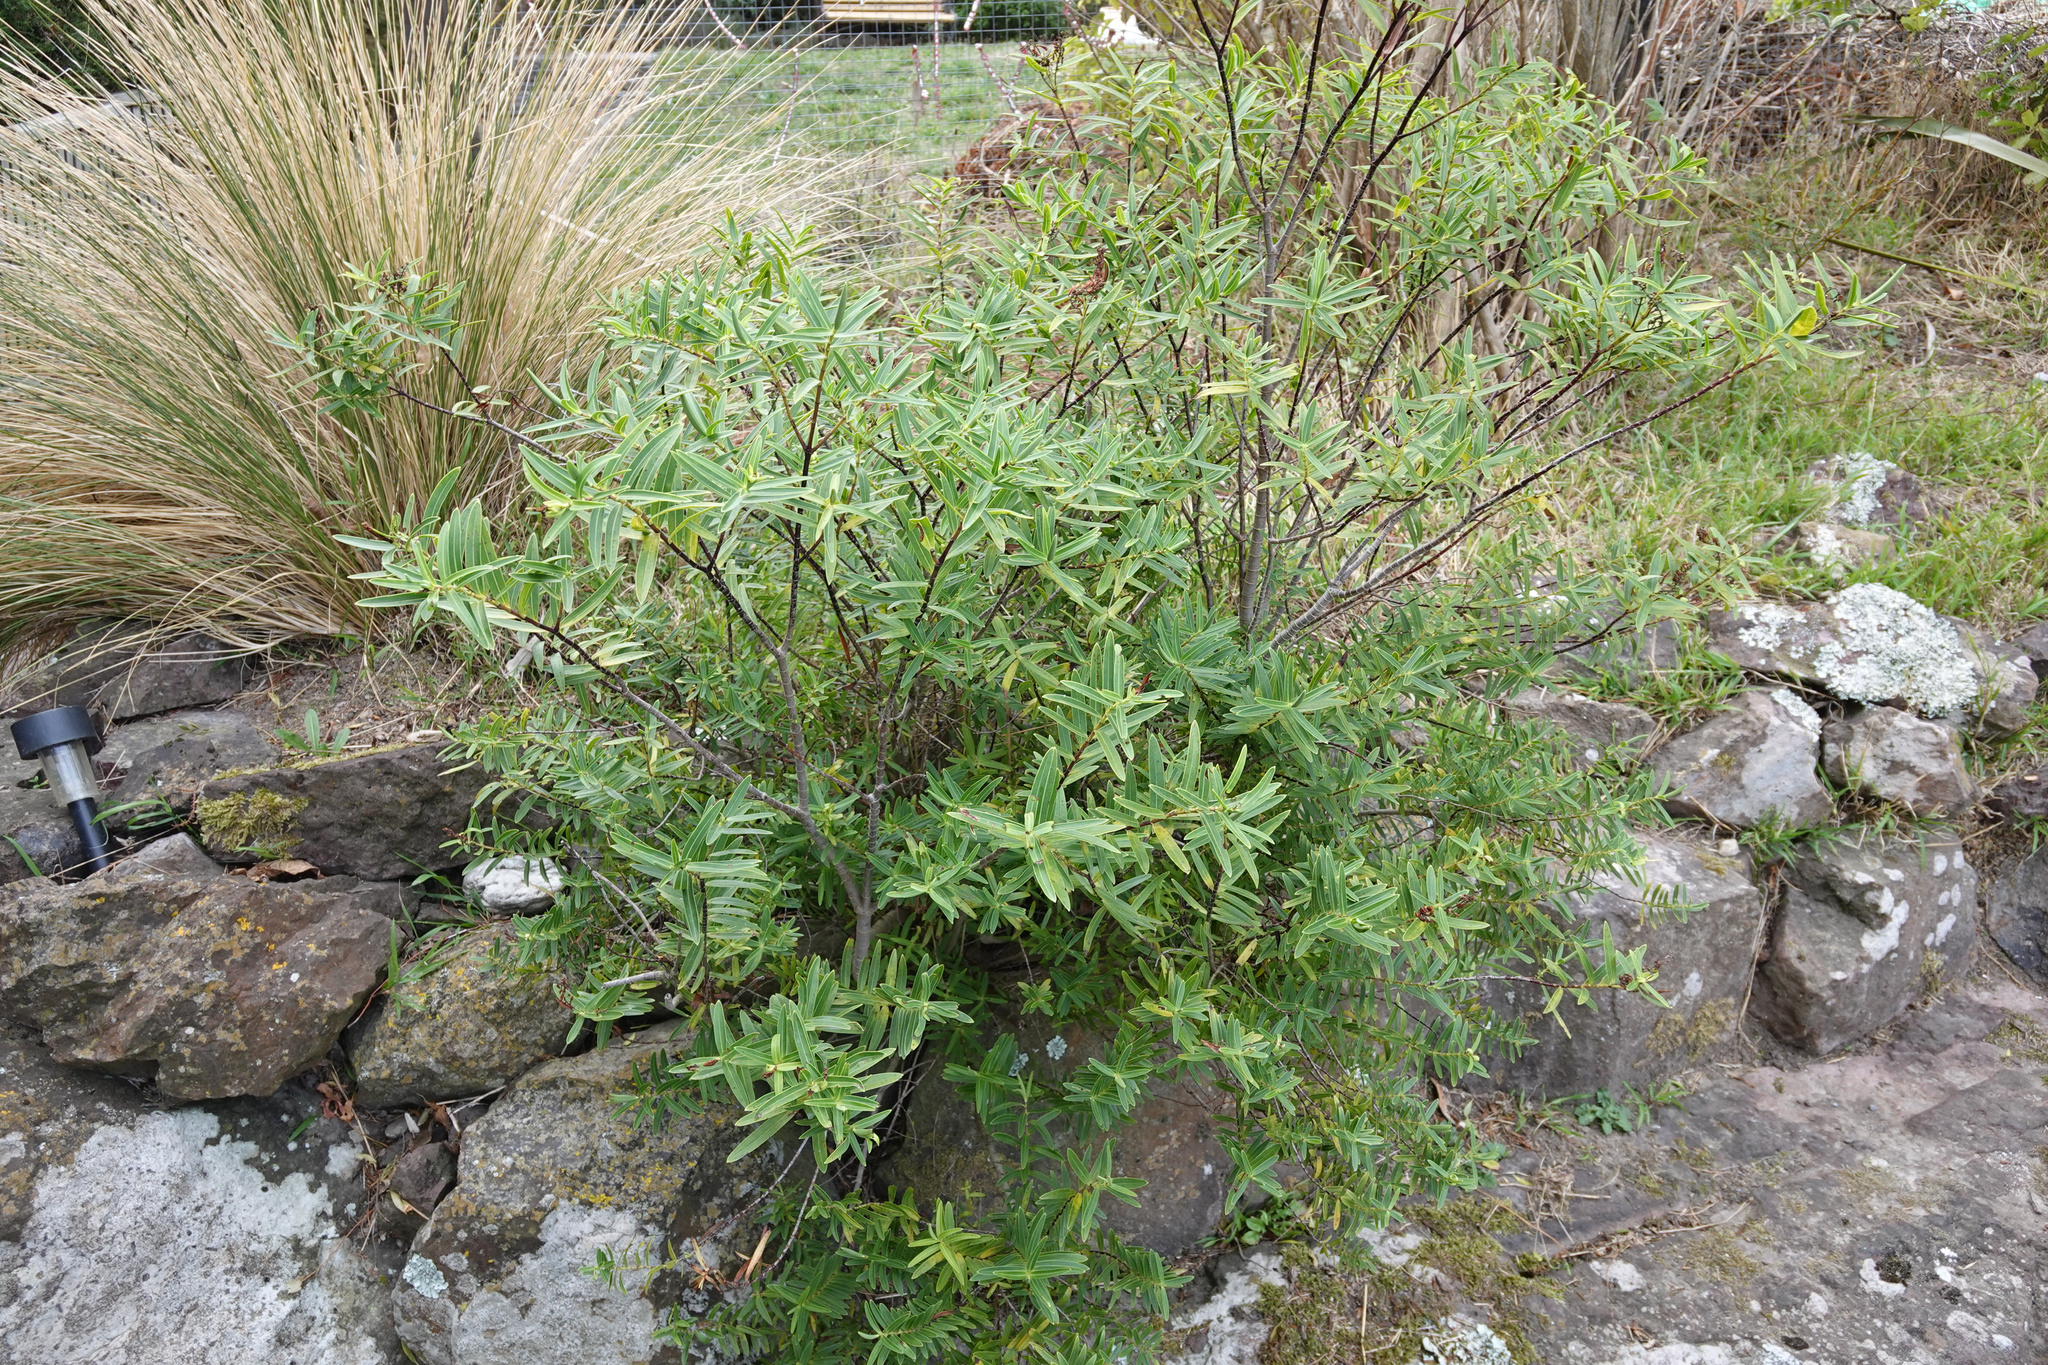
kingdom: Plantae
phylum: Tracheophyta
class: Magnoliopsida
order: Lamiales
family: Plantaginaceae
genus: Veronica
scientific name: Veronica strictissima
